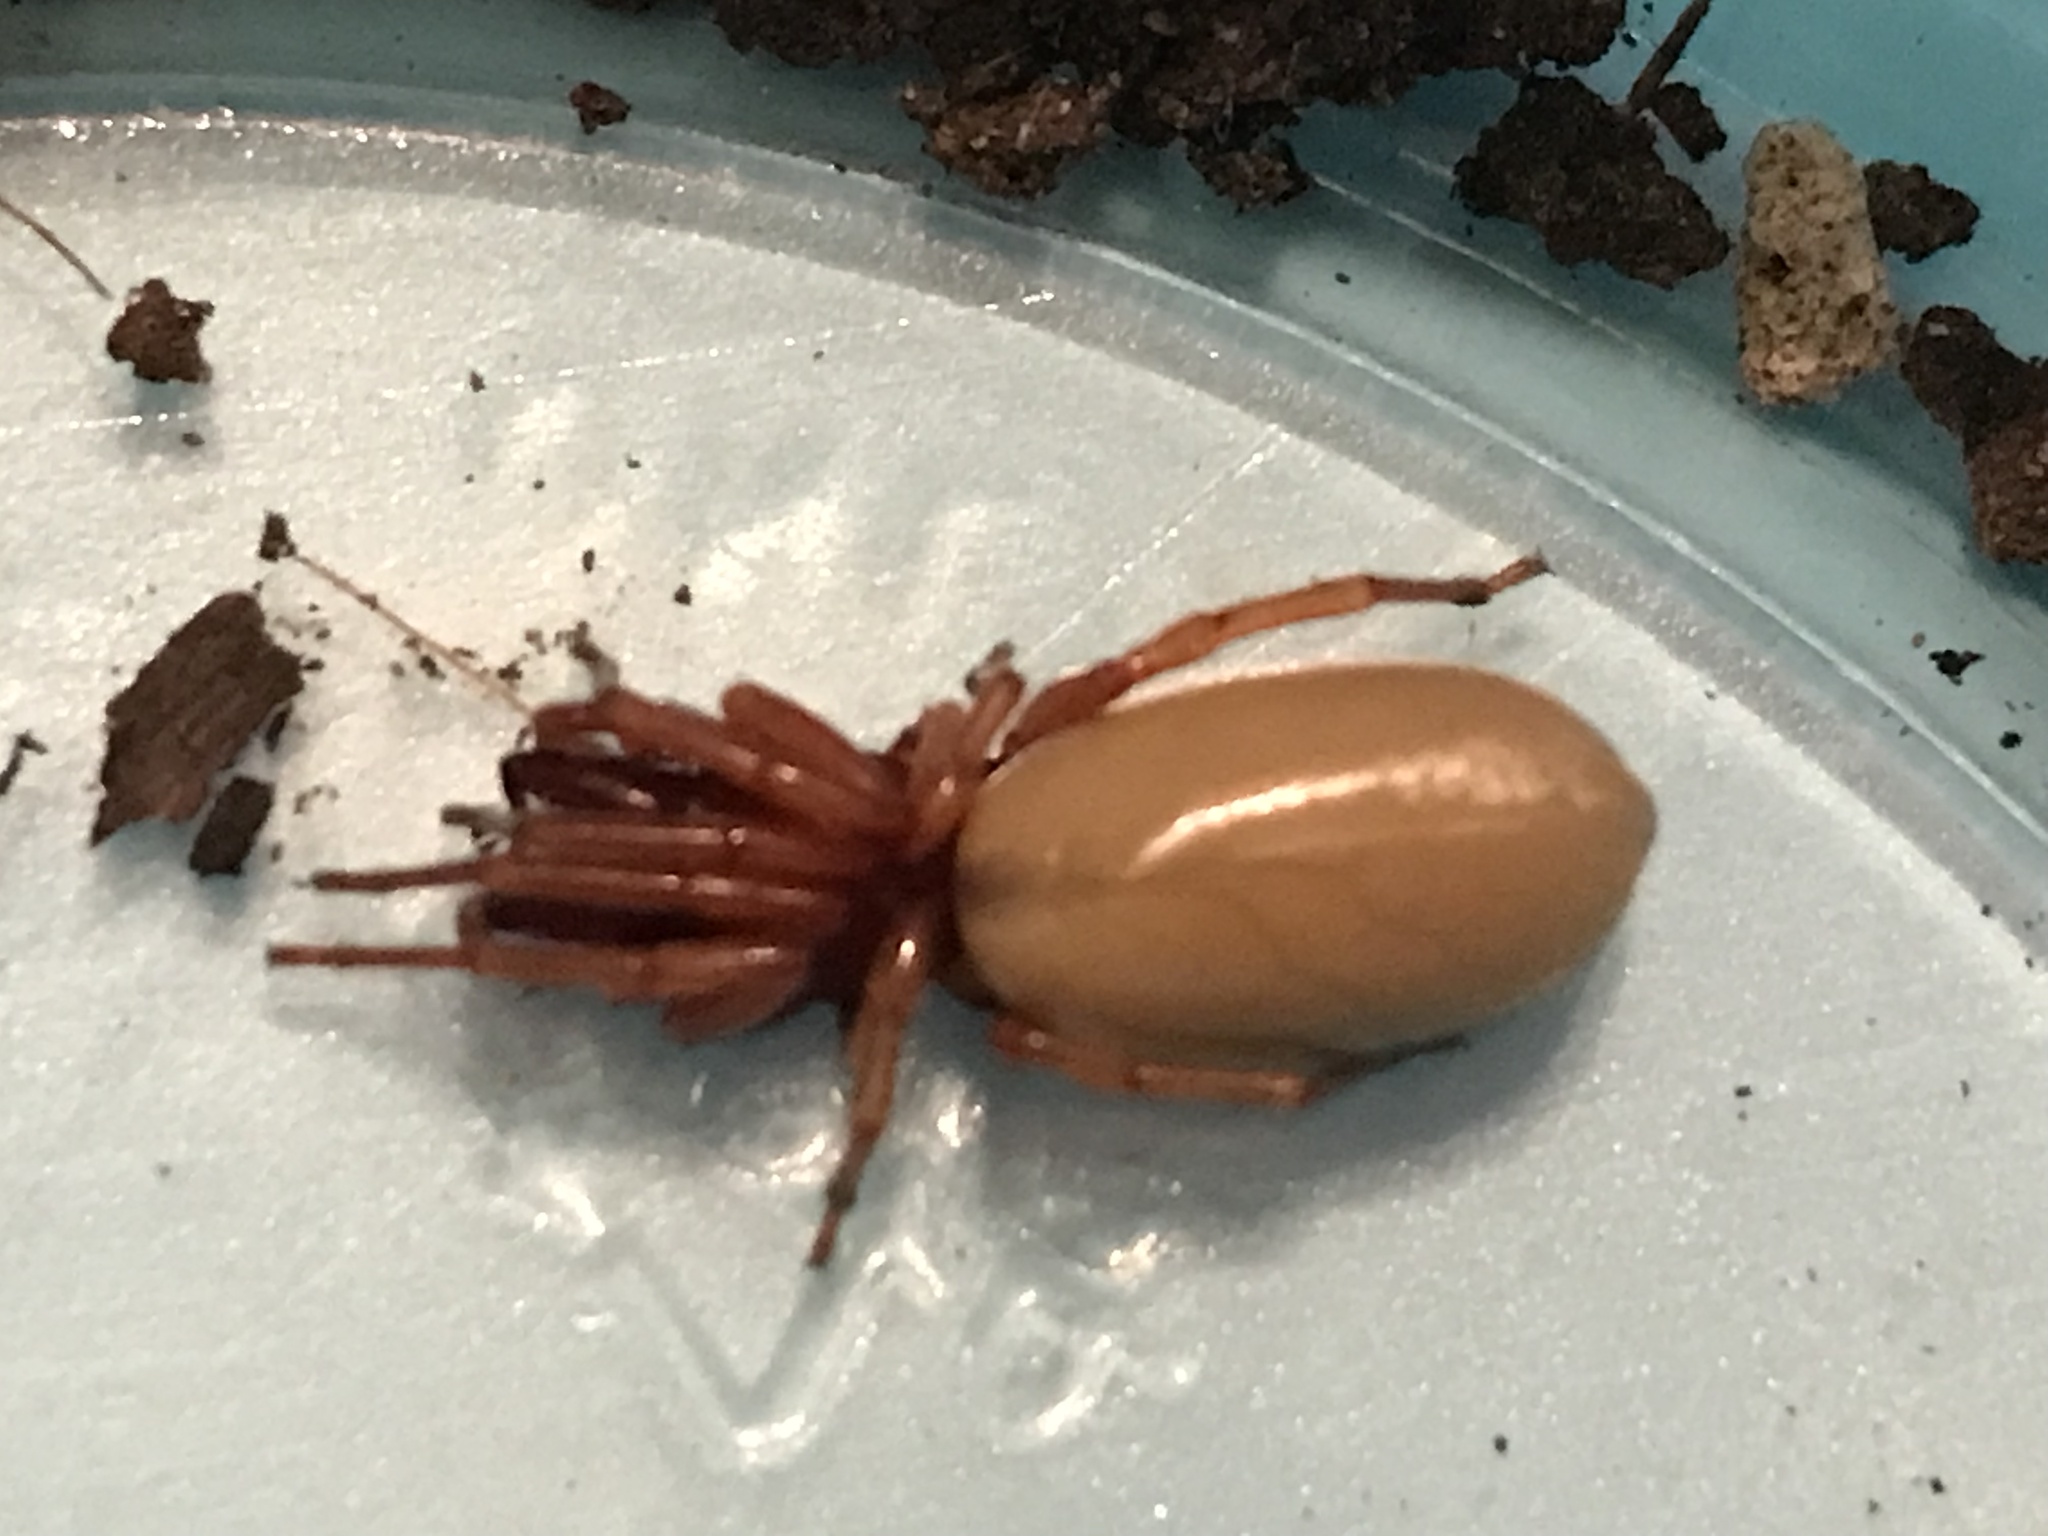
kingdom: Animalia
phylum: Arthropoda
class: Arachnida
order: Araneae
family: Dysderidae
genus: Dysdera
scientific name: Dysdera crocata
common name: Woodlouse spider
